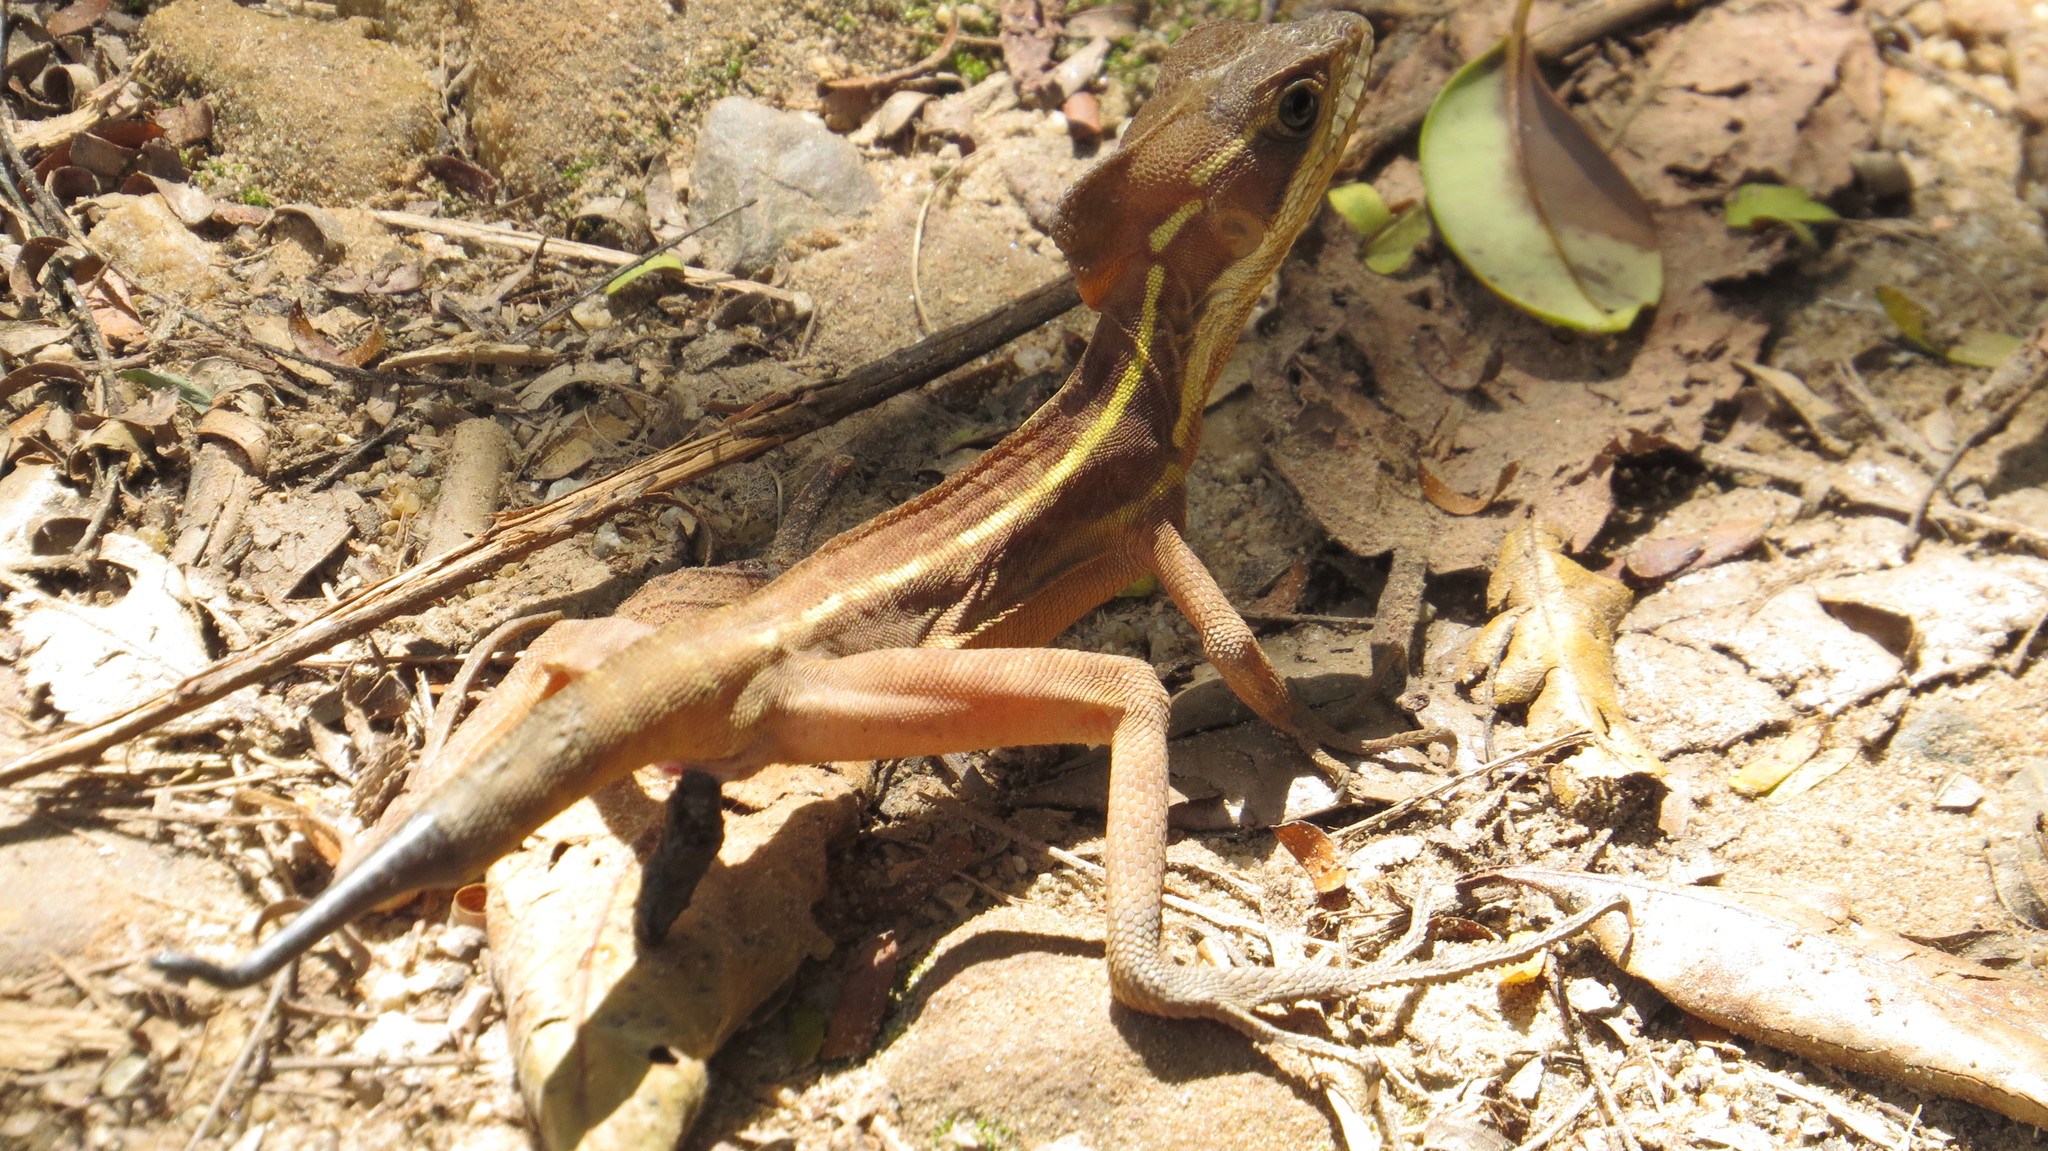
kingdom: Animalia
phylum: Chordata
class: Squamata
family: Corytophanidae
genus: Basiliscus
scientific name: Basiliscus vittatus
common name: Brown basilisk
